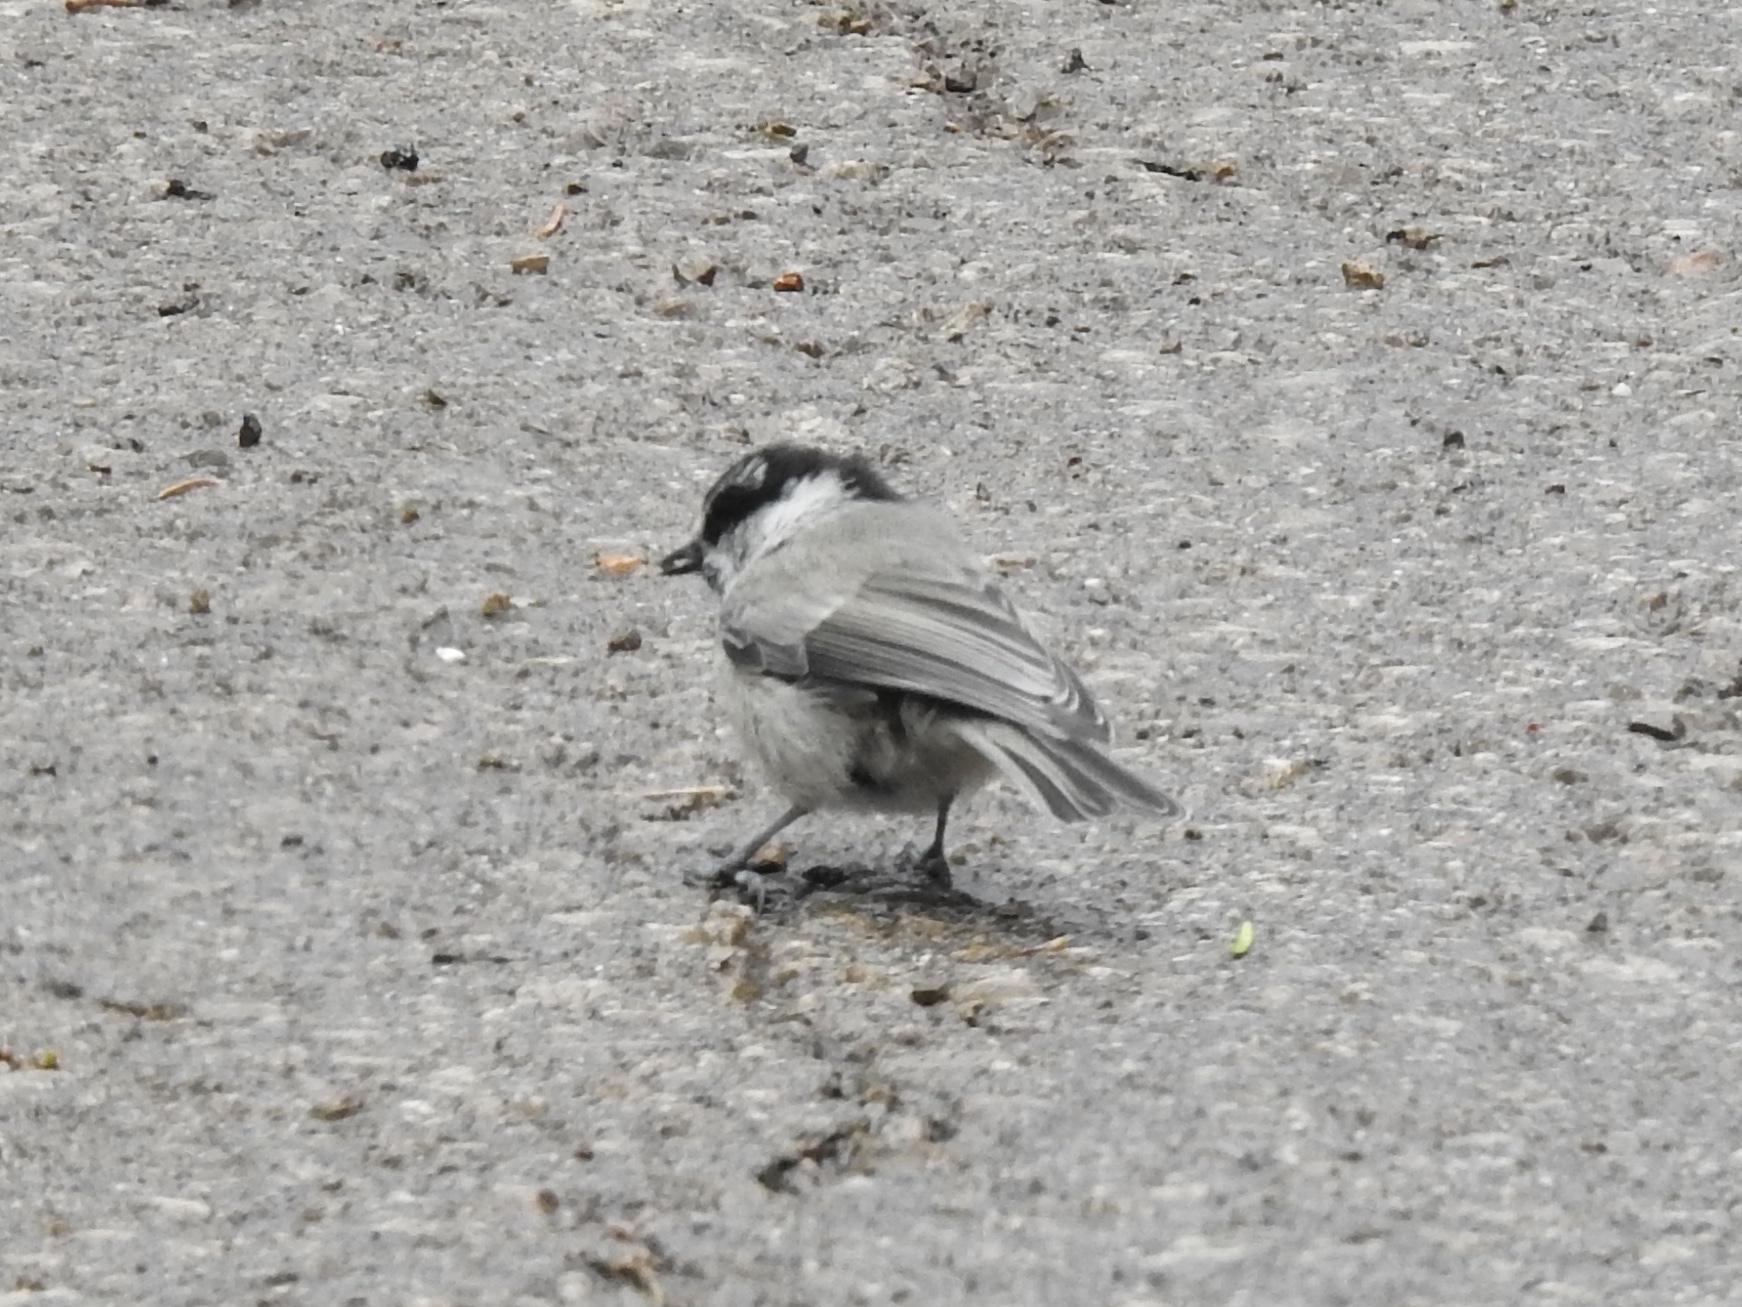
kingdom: Animalia
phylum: Chordata
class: Aves
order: Passeriformes
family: Paridae
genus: Poecile
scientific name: Poecile gambeli
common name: Mountain chickadee
